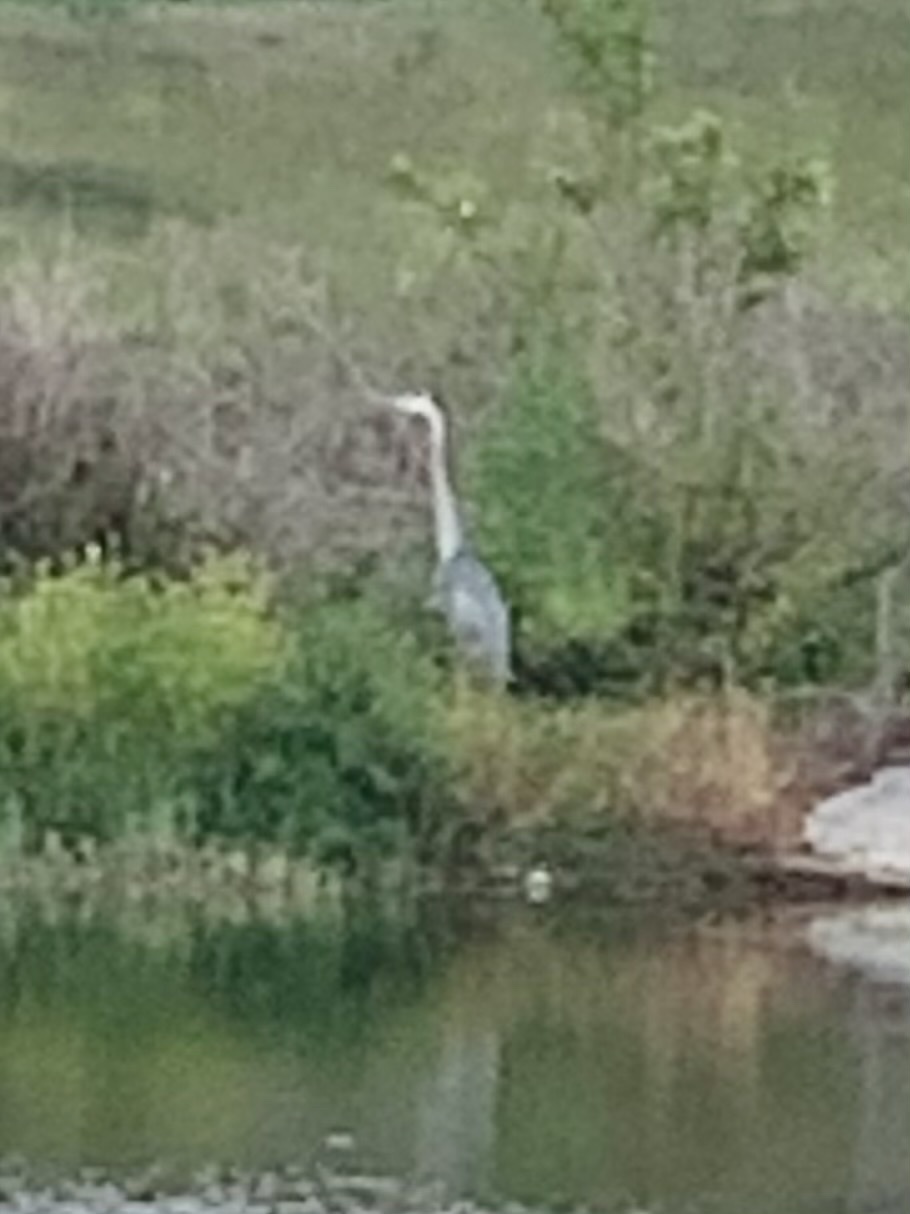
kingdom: Animalia
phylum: Chordata
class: Aves
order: Pelecaniformes
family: Ardeidae
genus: Ardea
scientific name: Ardea herodias
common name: Great blue heron
